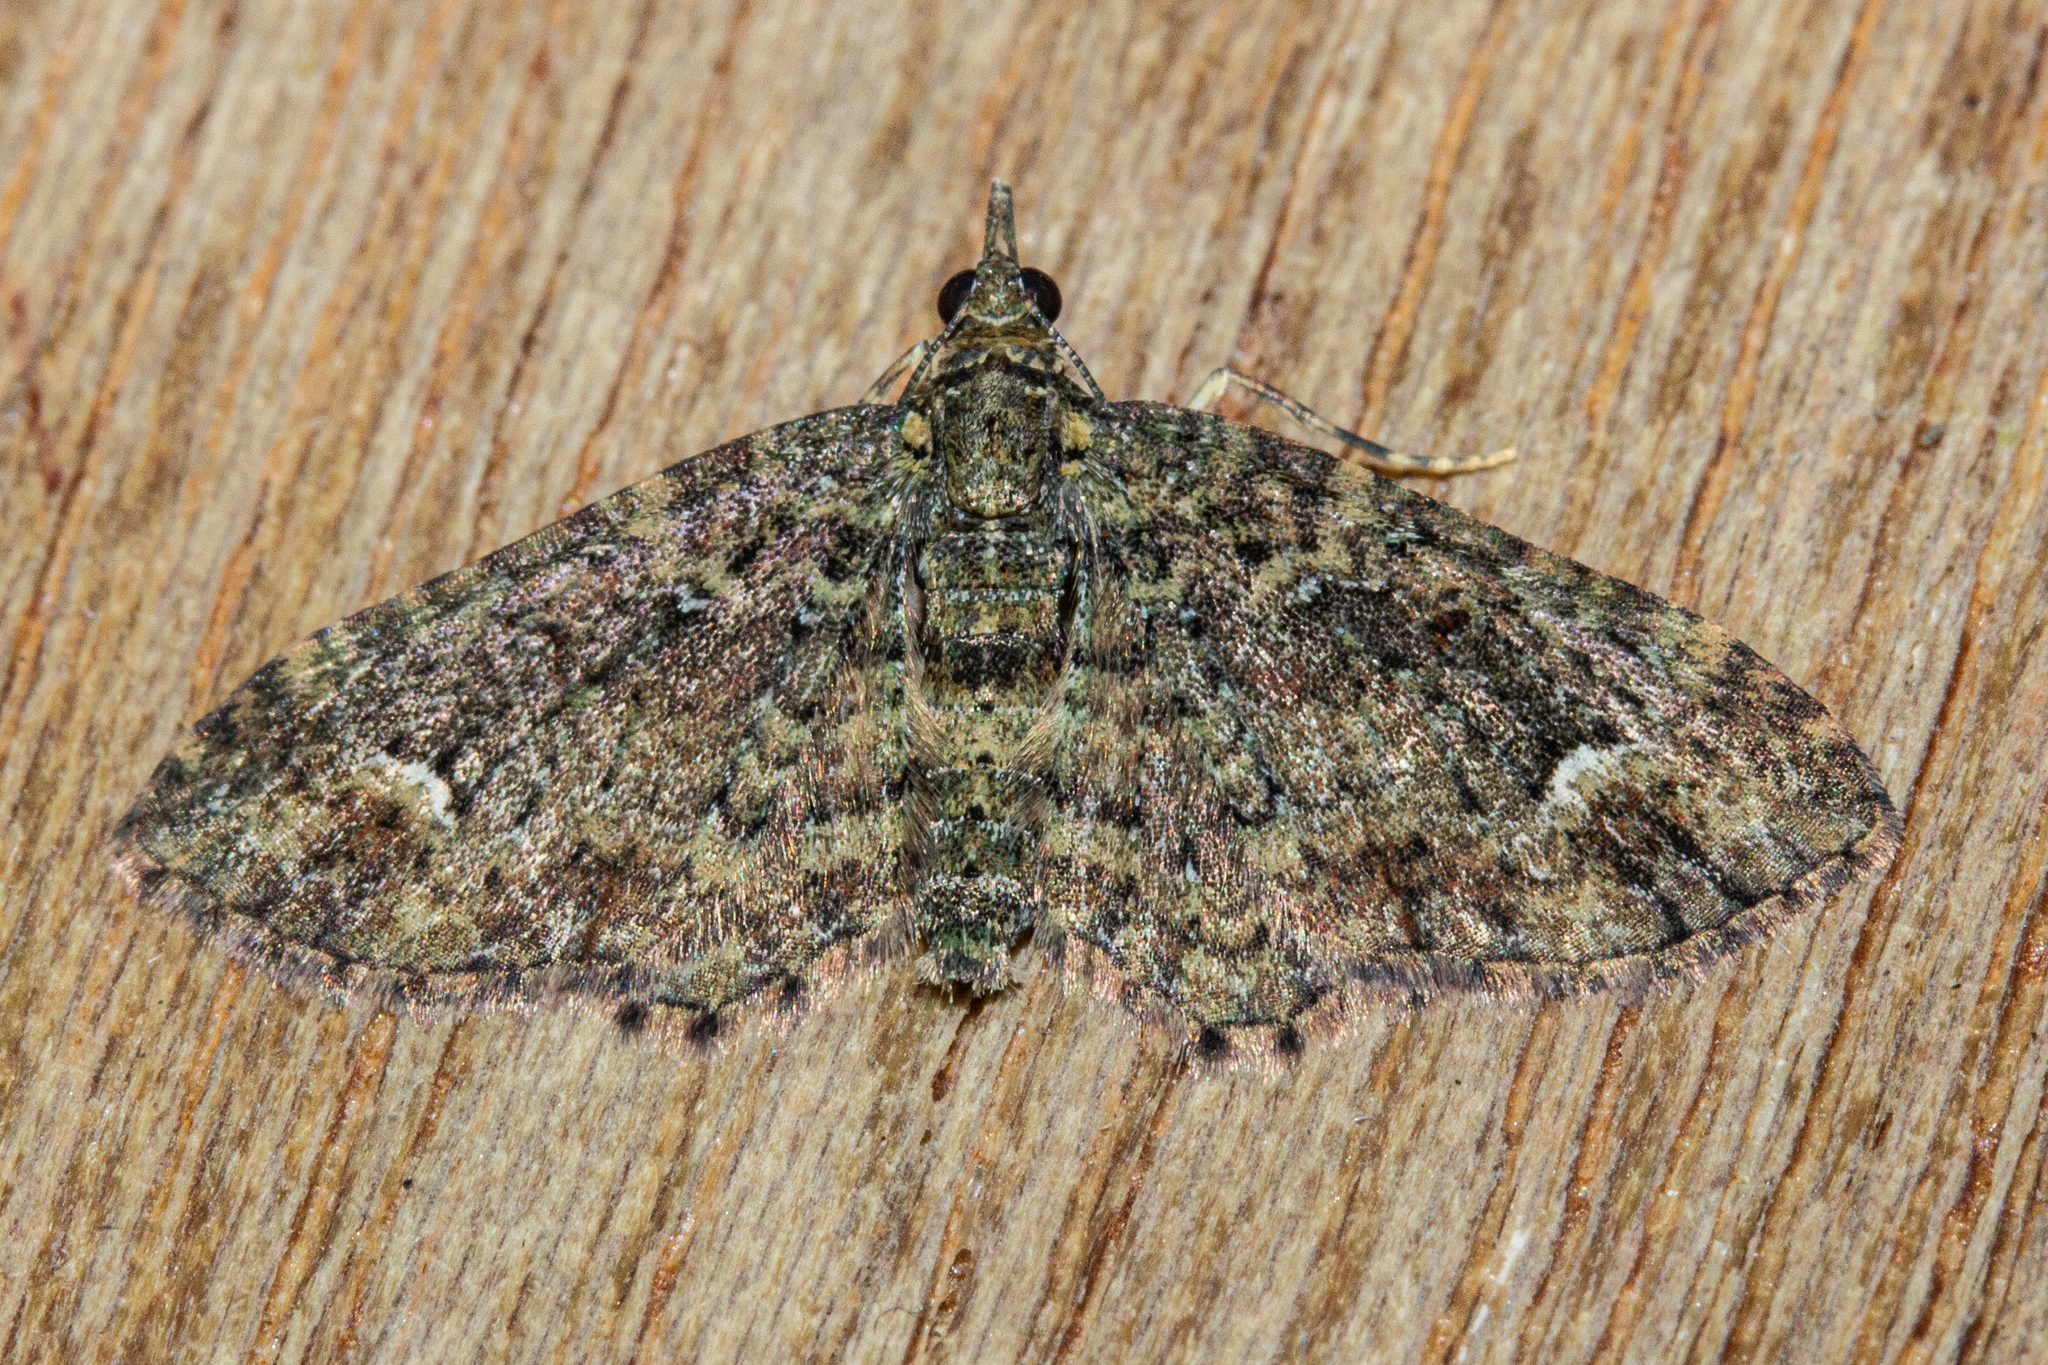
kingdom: Animalia
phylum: Arthropoda
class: Insecta
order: Lepidoptera
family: Geometridae
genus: Pasiphilodes
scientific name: Pasiphilodes testulata
